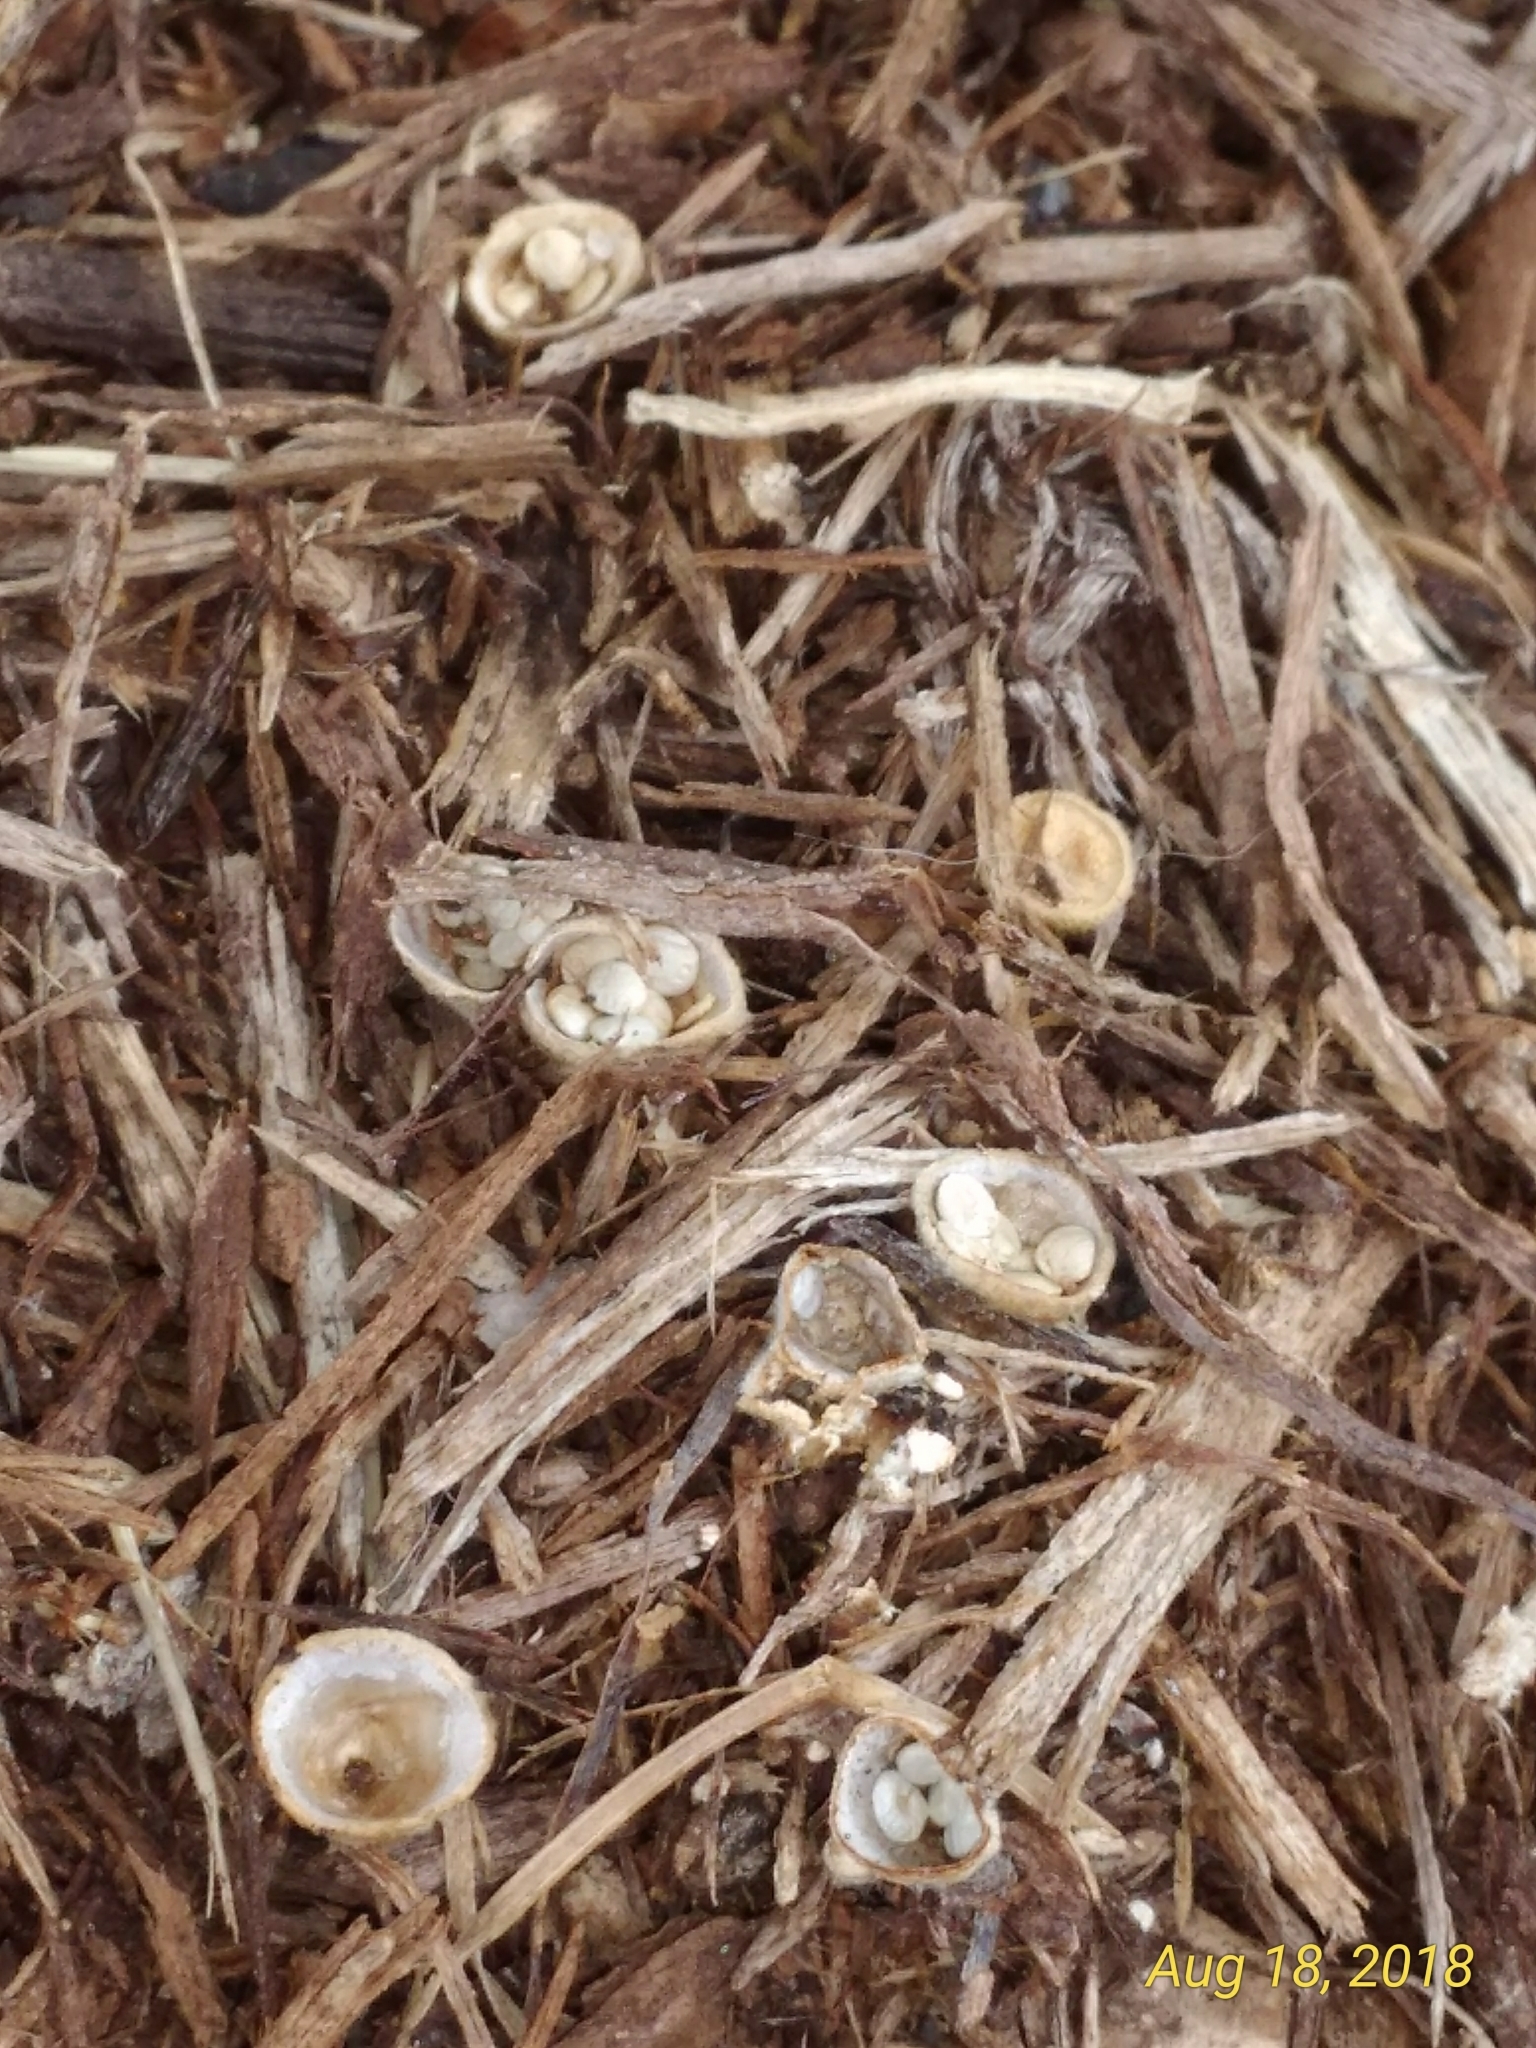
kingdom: Fungi
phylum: Basidiomycota
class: Agaricomycetes
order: Agaricales
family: Nidulariaceae
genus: Crucibulum
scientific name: Crucibulum laeve
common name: Common bird's nest
